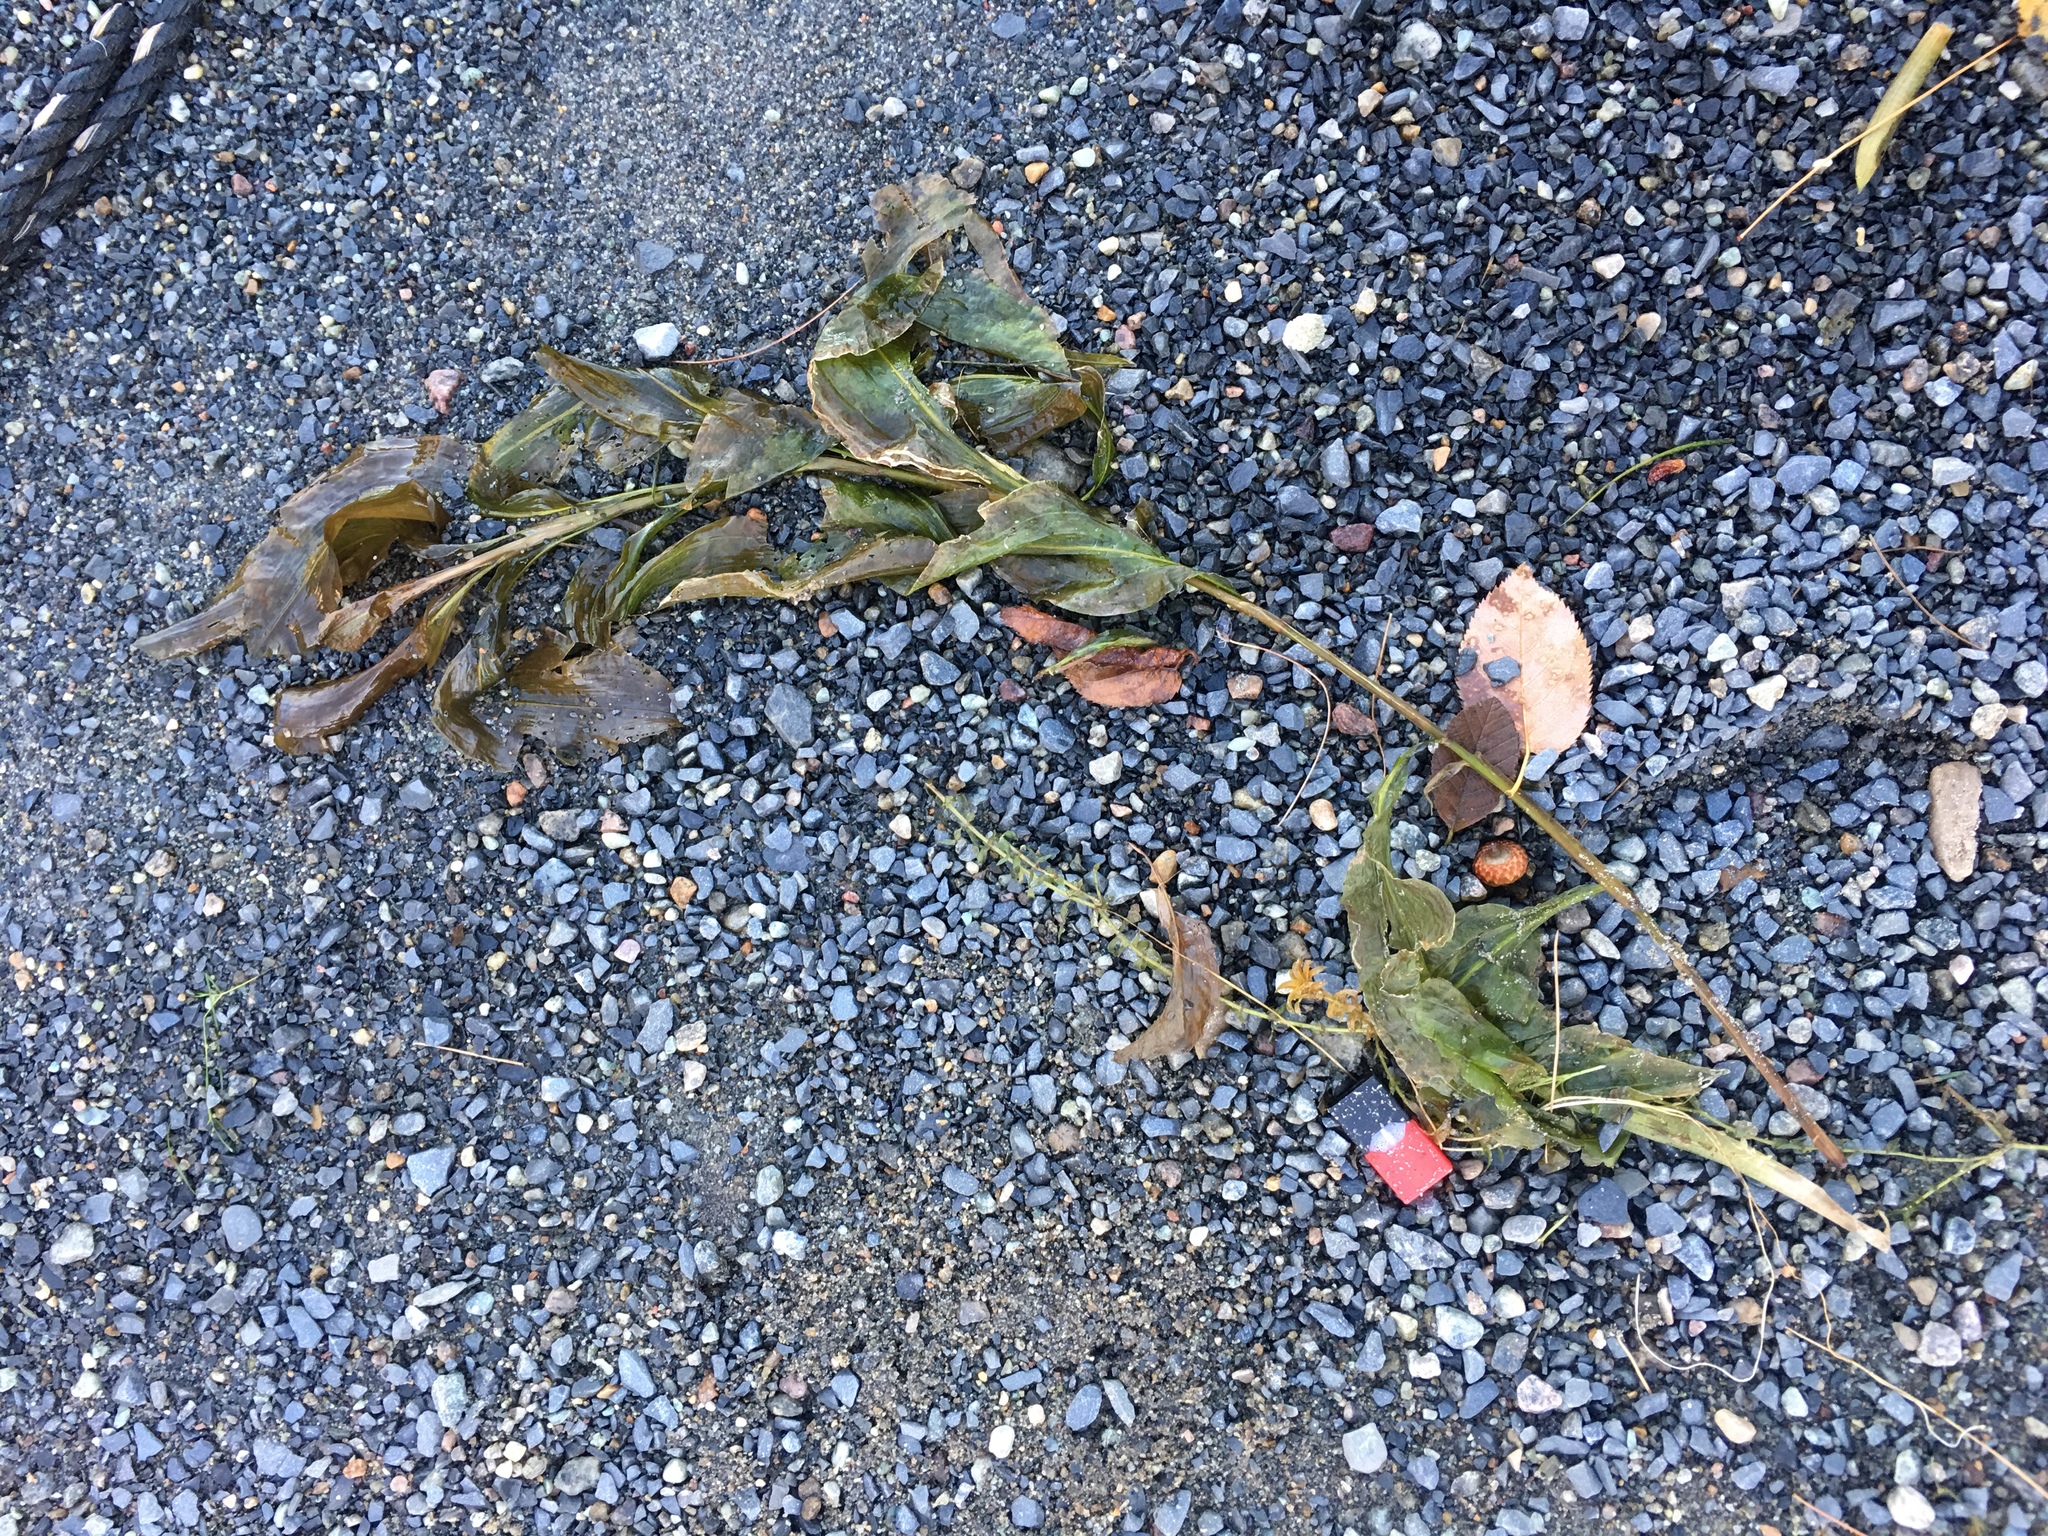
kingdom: Plantae
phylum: Tracheophyta
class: Liliopsida
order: Alismatales
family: Potamogetonaceae
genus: Potamogeton
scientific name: Potamogeton amplifolius
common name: Broad-leaved pondweed
